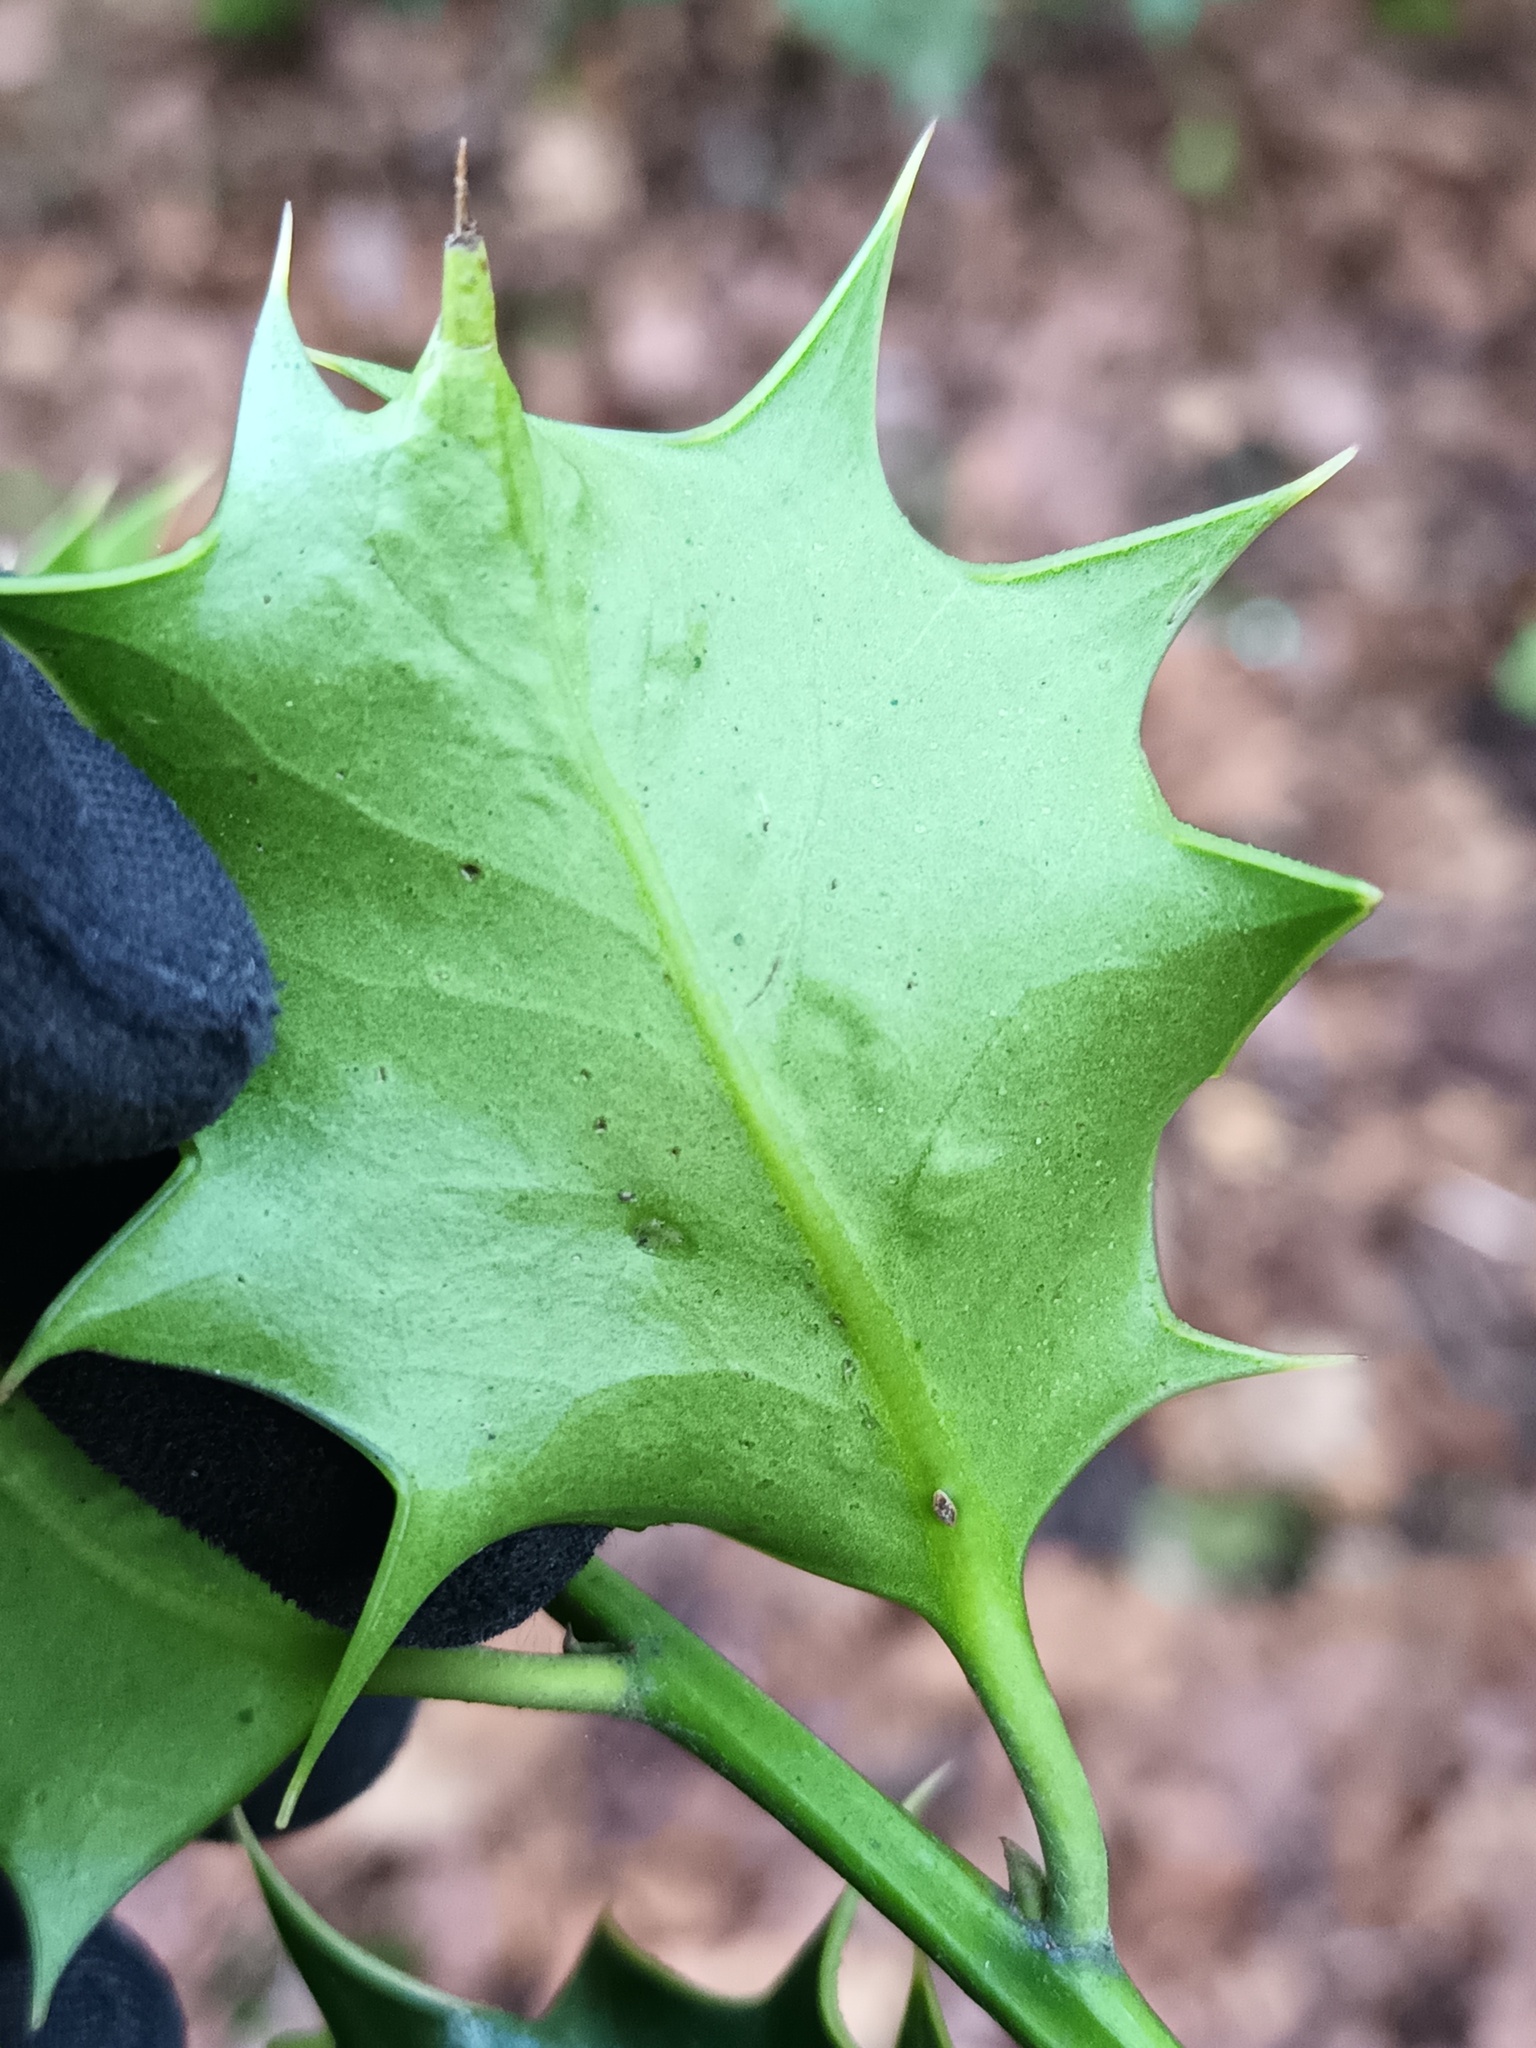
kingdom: Animalia
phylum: Arthropoda
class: Insecta
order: Diptera
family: Agromyzidae
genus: Phytomyza
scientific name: Phytomyza ilicis
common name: Holly leafminer
